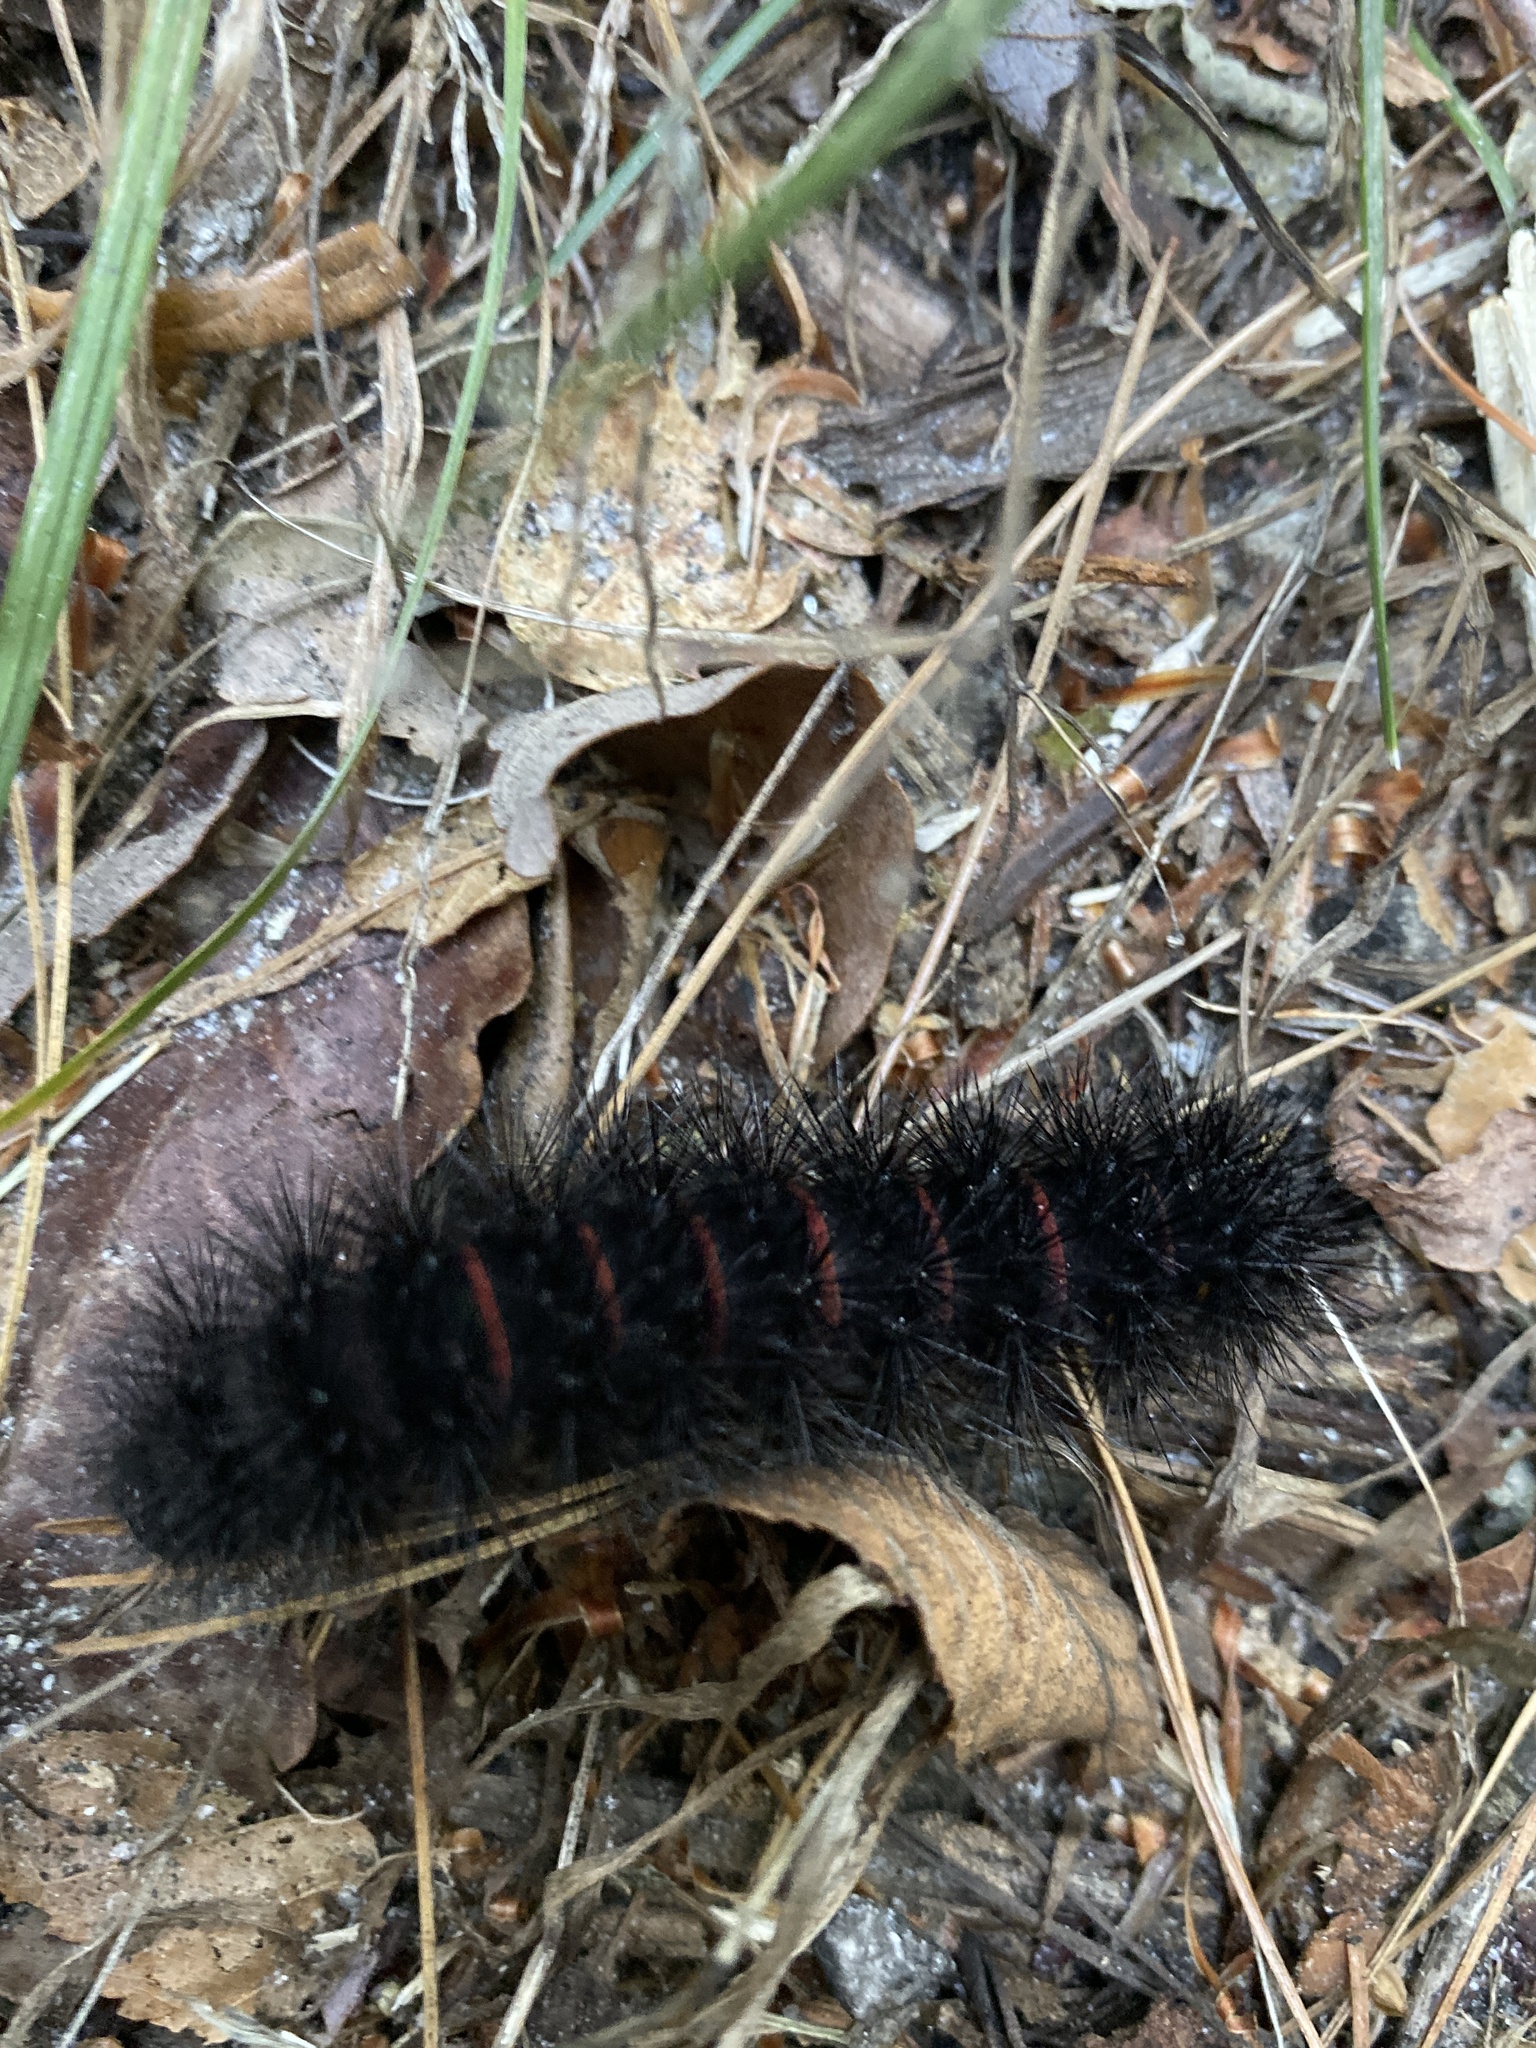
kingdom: Animalia
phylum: Arthropoda
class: Insecta
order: Lepidoptera
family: Erebidae
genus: Hypercompe
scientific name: Hypercompe scribonia
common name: Giant leopard moth
